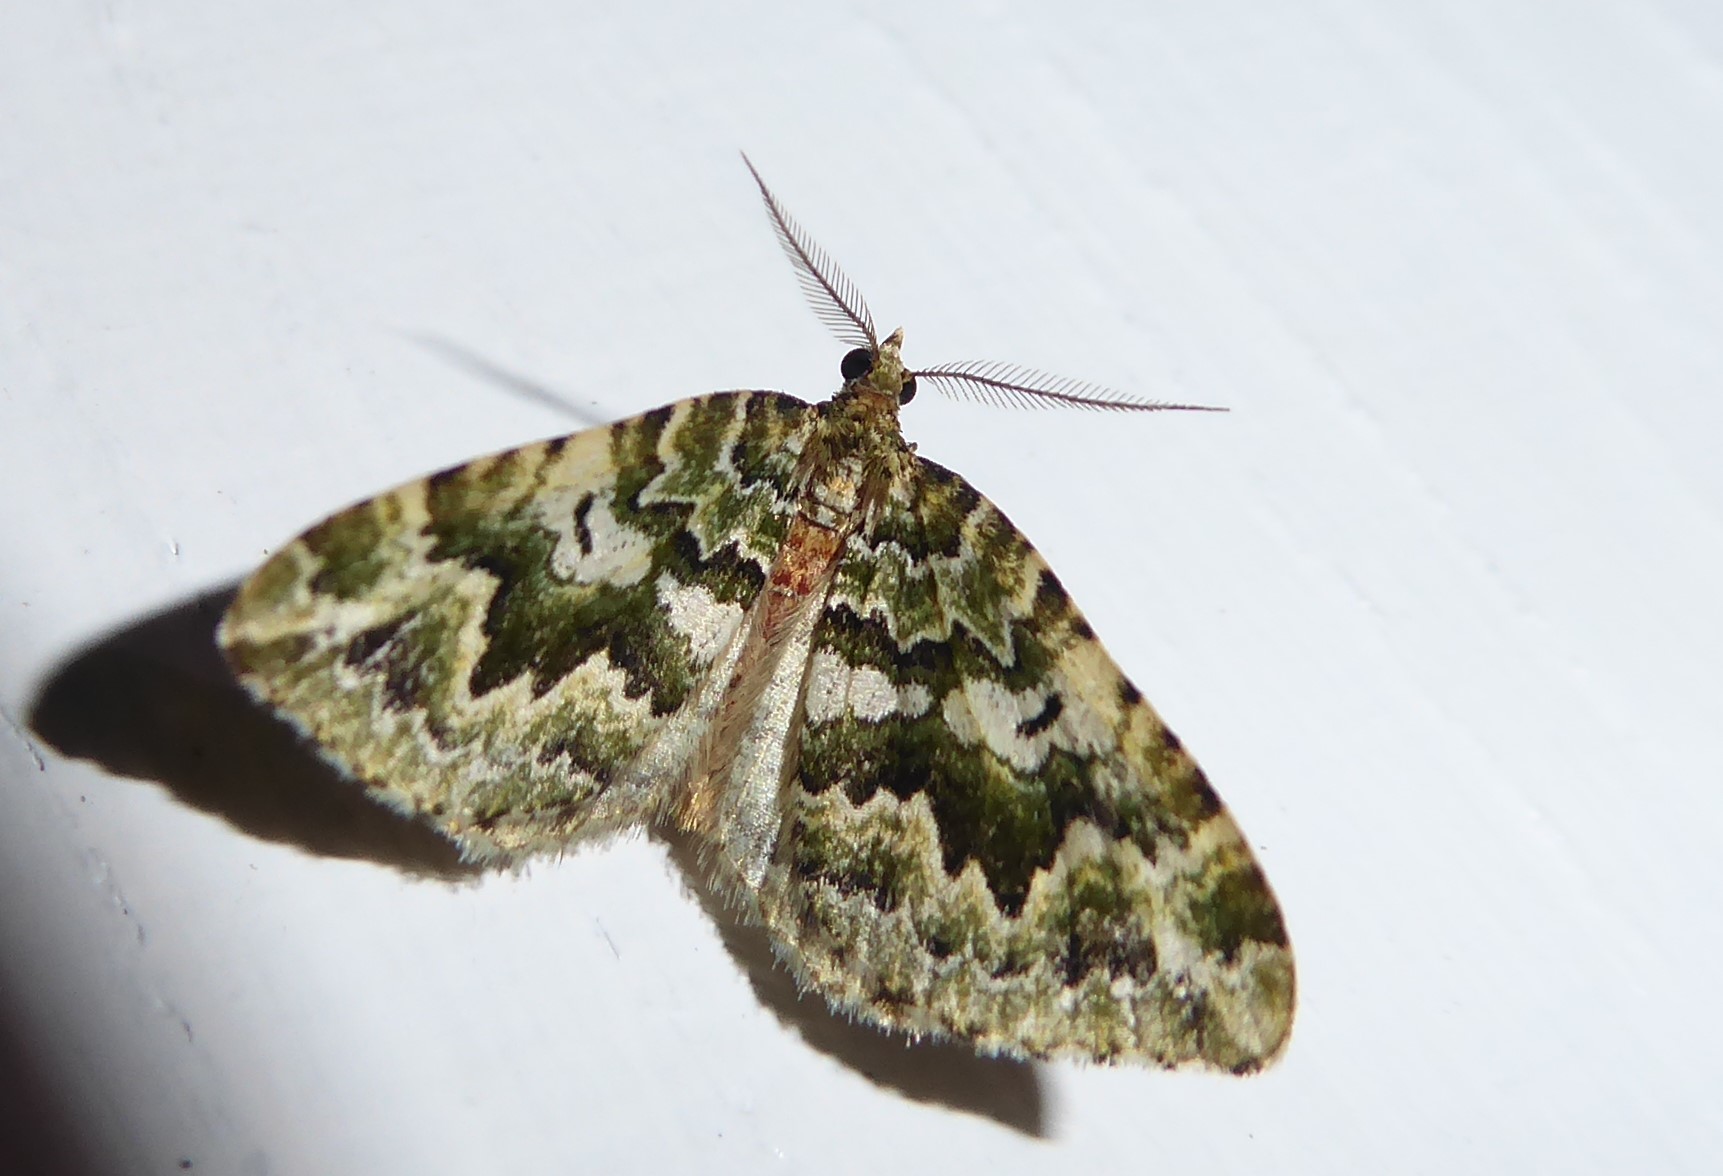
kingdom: Animalia
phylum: Arthropoda
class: Insecta
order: Lepidoptera
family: Geometridae
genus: Asaphodes
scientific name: Asaphodes beata
